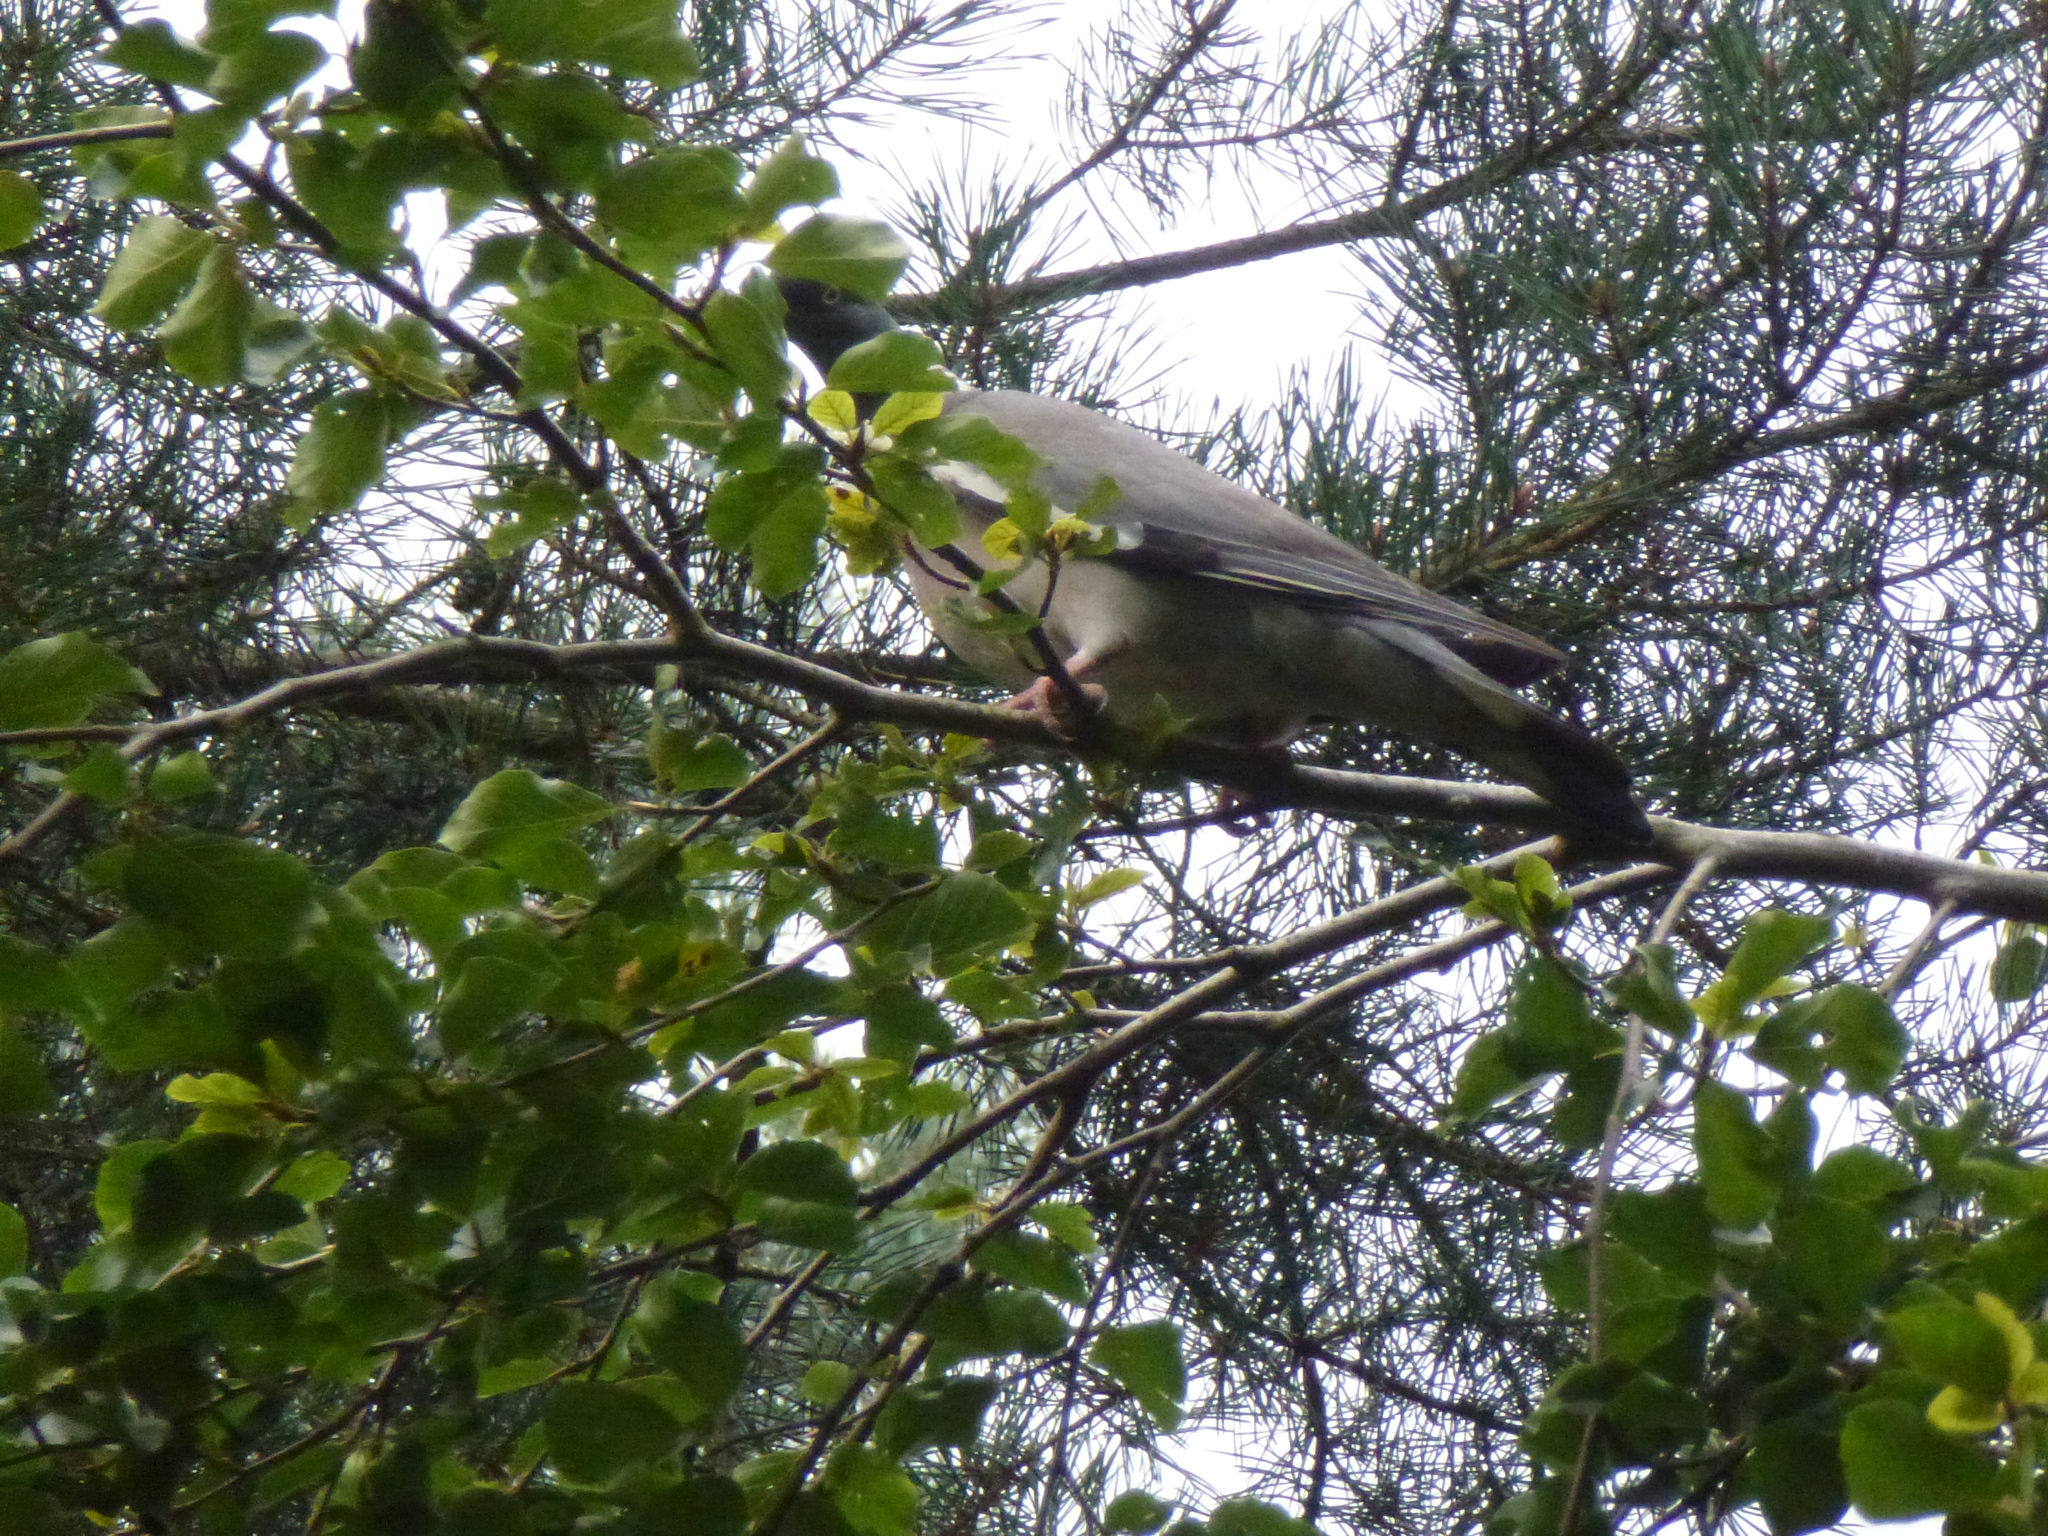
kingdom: Animalia
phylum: Chordata
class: Aves
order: Columbiformes
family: Columbidae
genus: Columba
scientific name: Columba palumbus
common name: Common wood pigeon
